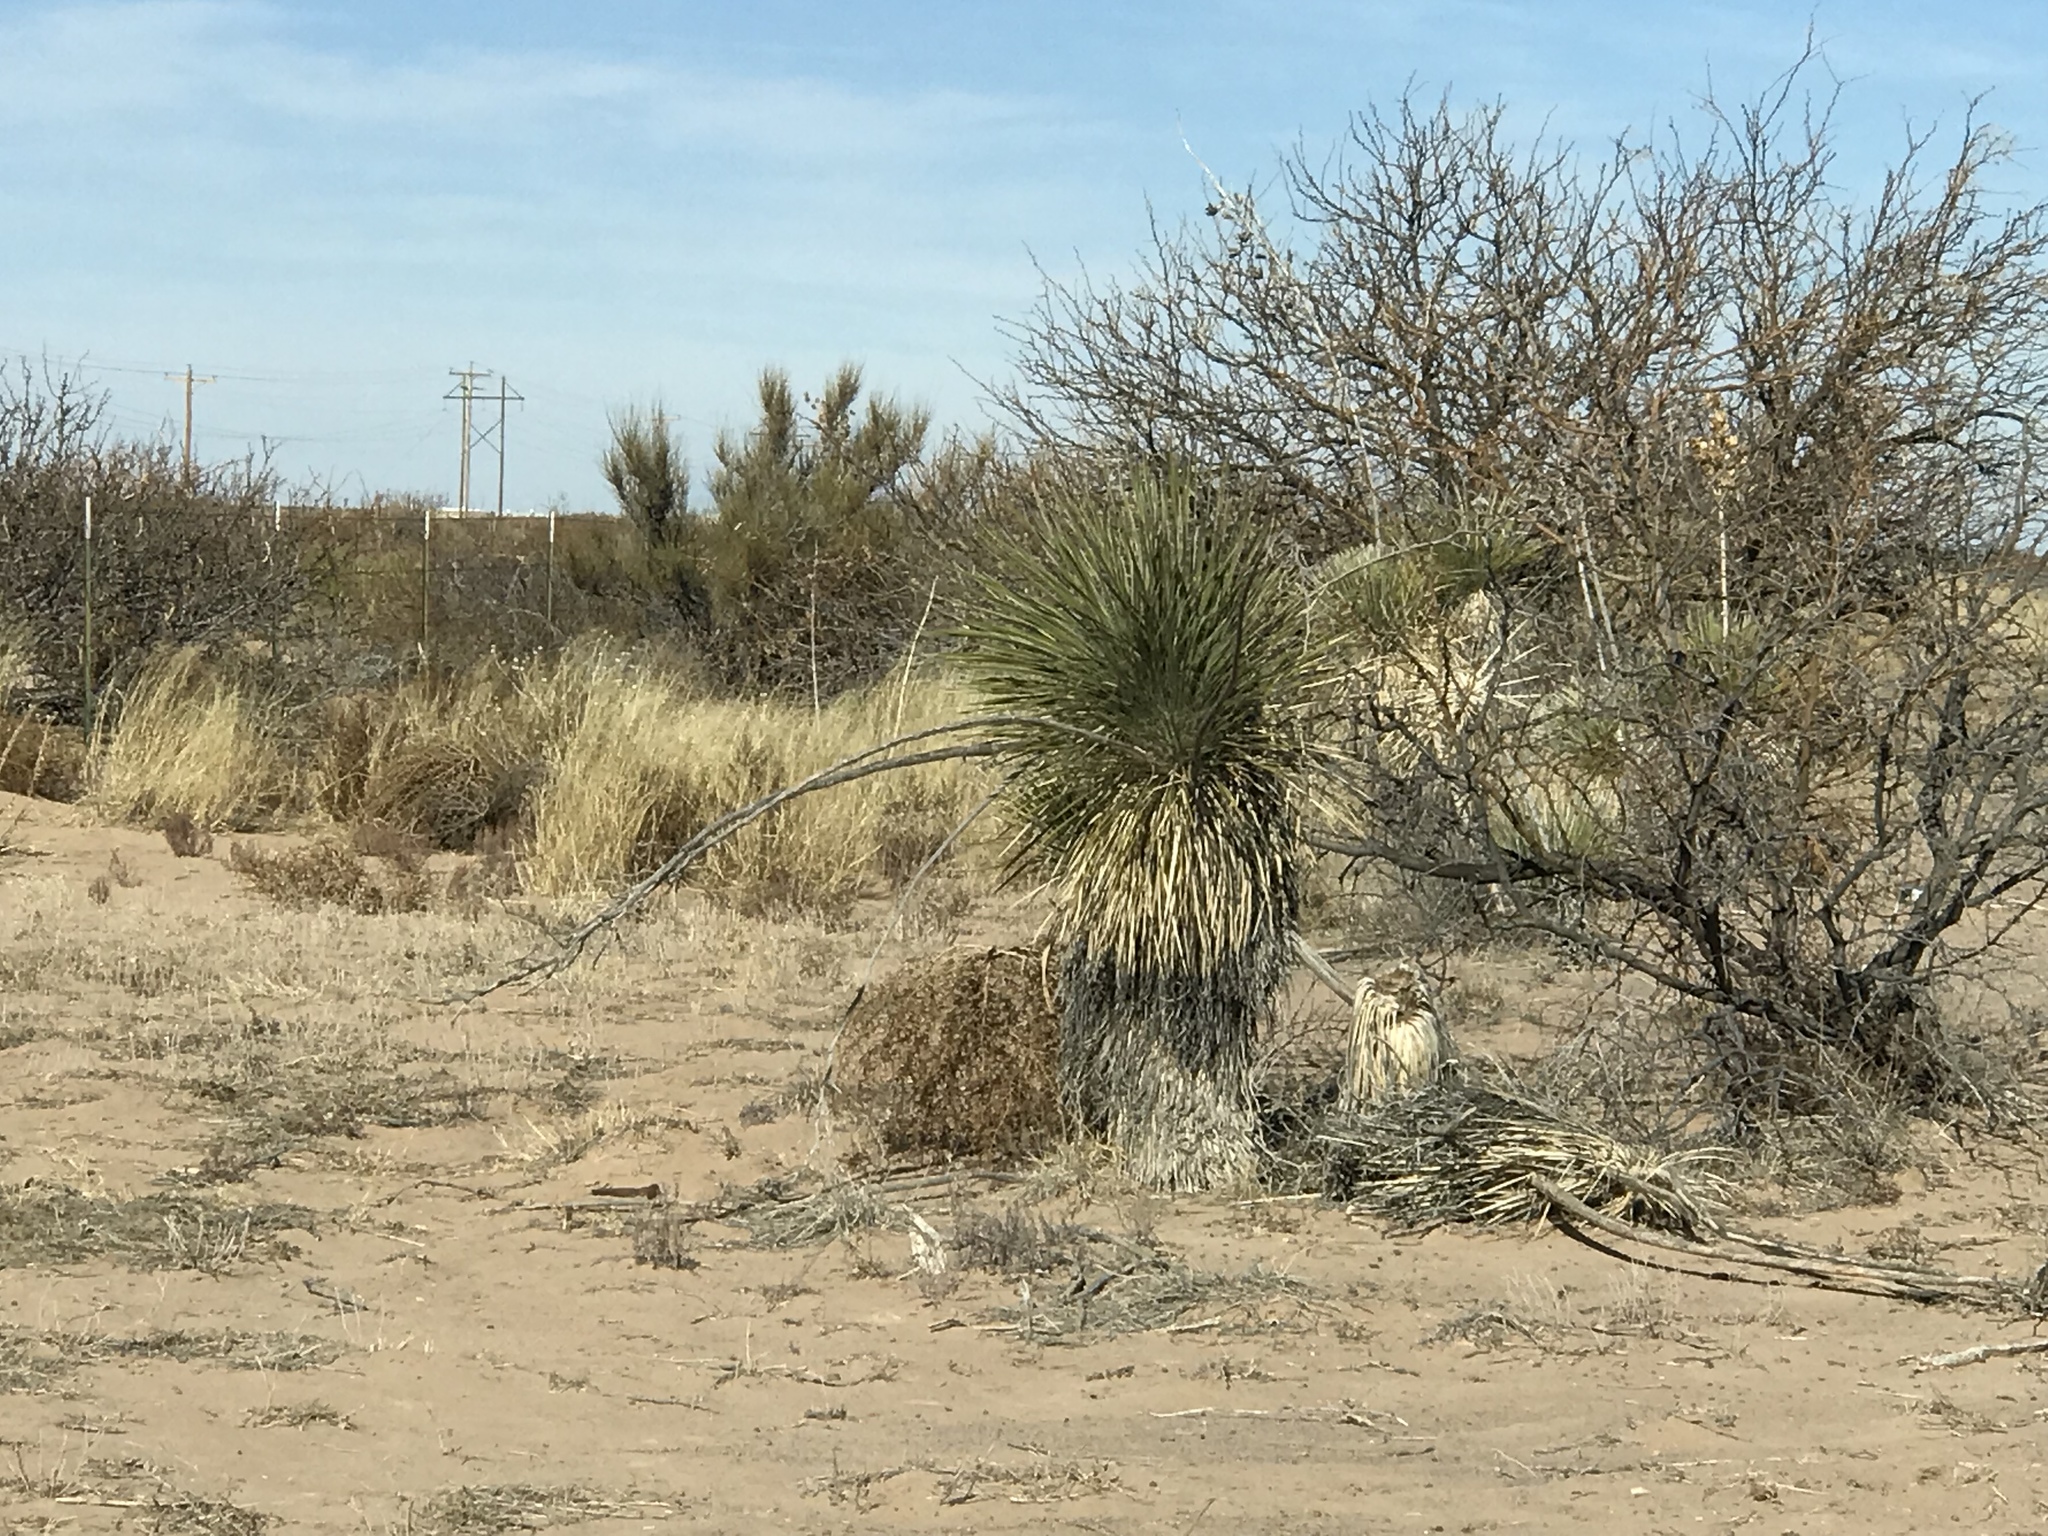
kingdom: Plantae
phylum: Tracheophyta
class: Liliopsida
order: Asparagales
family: Asparagaceae
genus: Yucca
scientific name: Yucca elata
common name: Palmella
